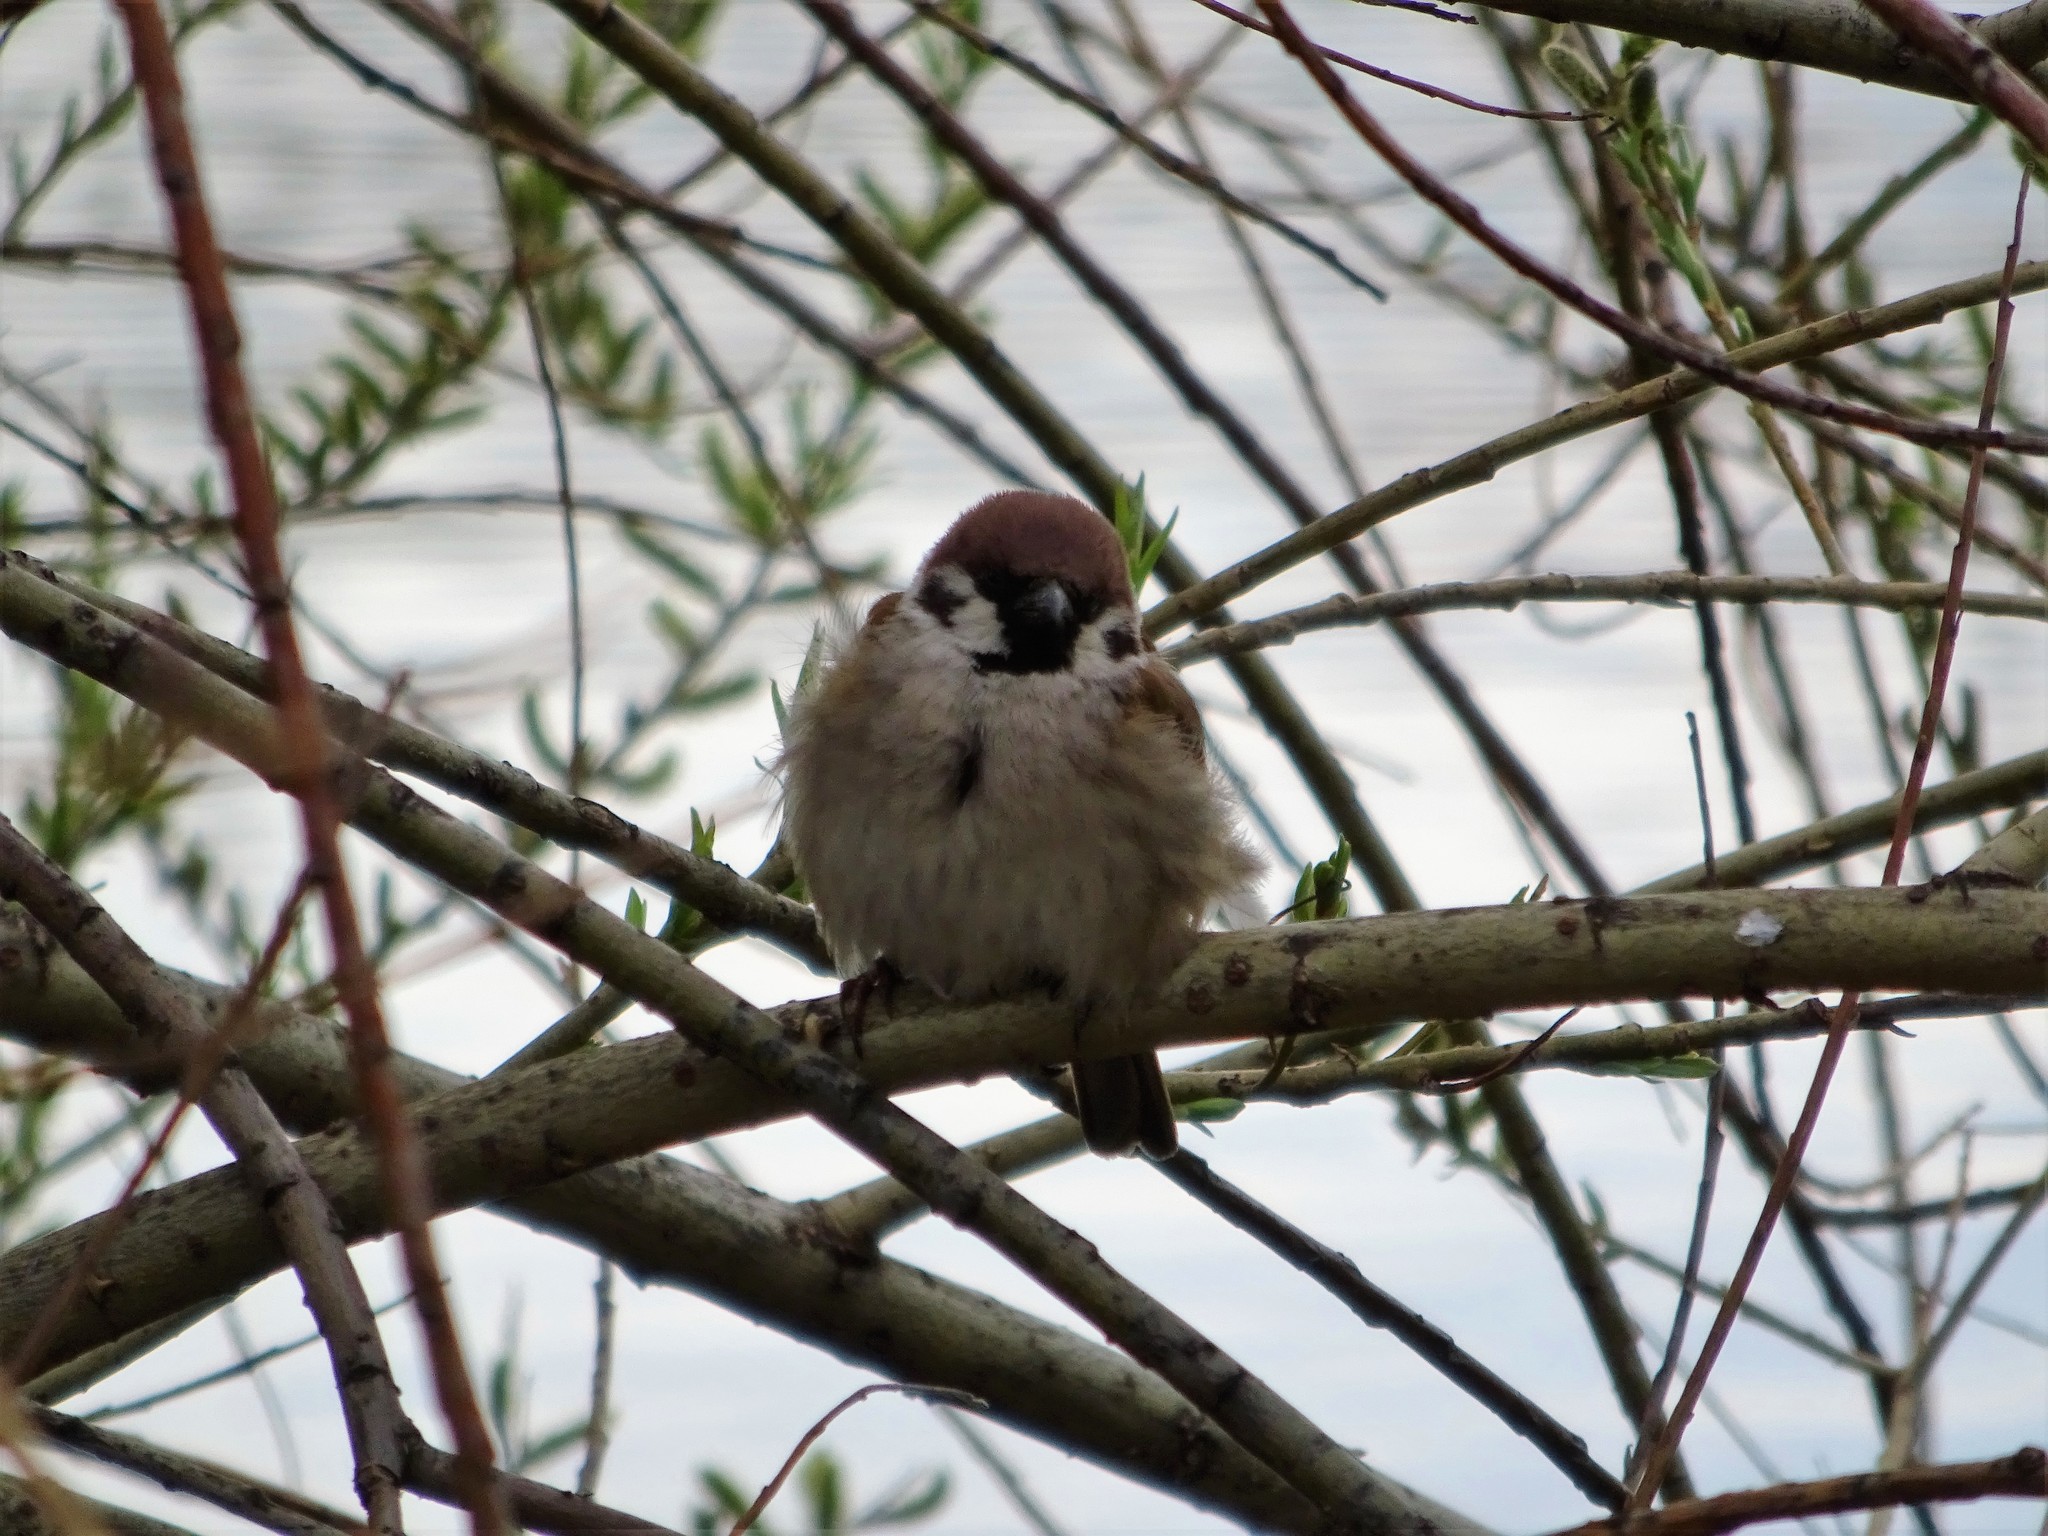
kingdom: Animalia
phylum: Chordata
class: Aves
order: Passeriformes
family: Passeridae
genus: Passer
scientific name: Passer domesticus
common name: House sparrow
